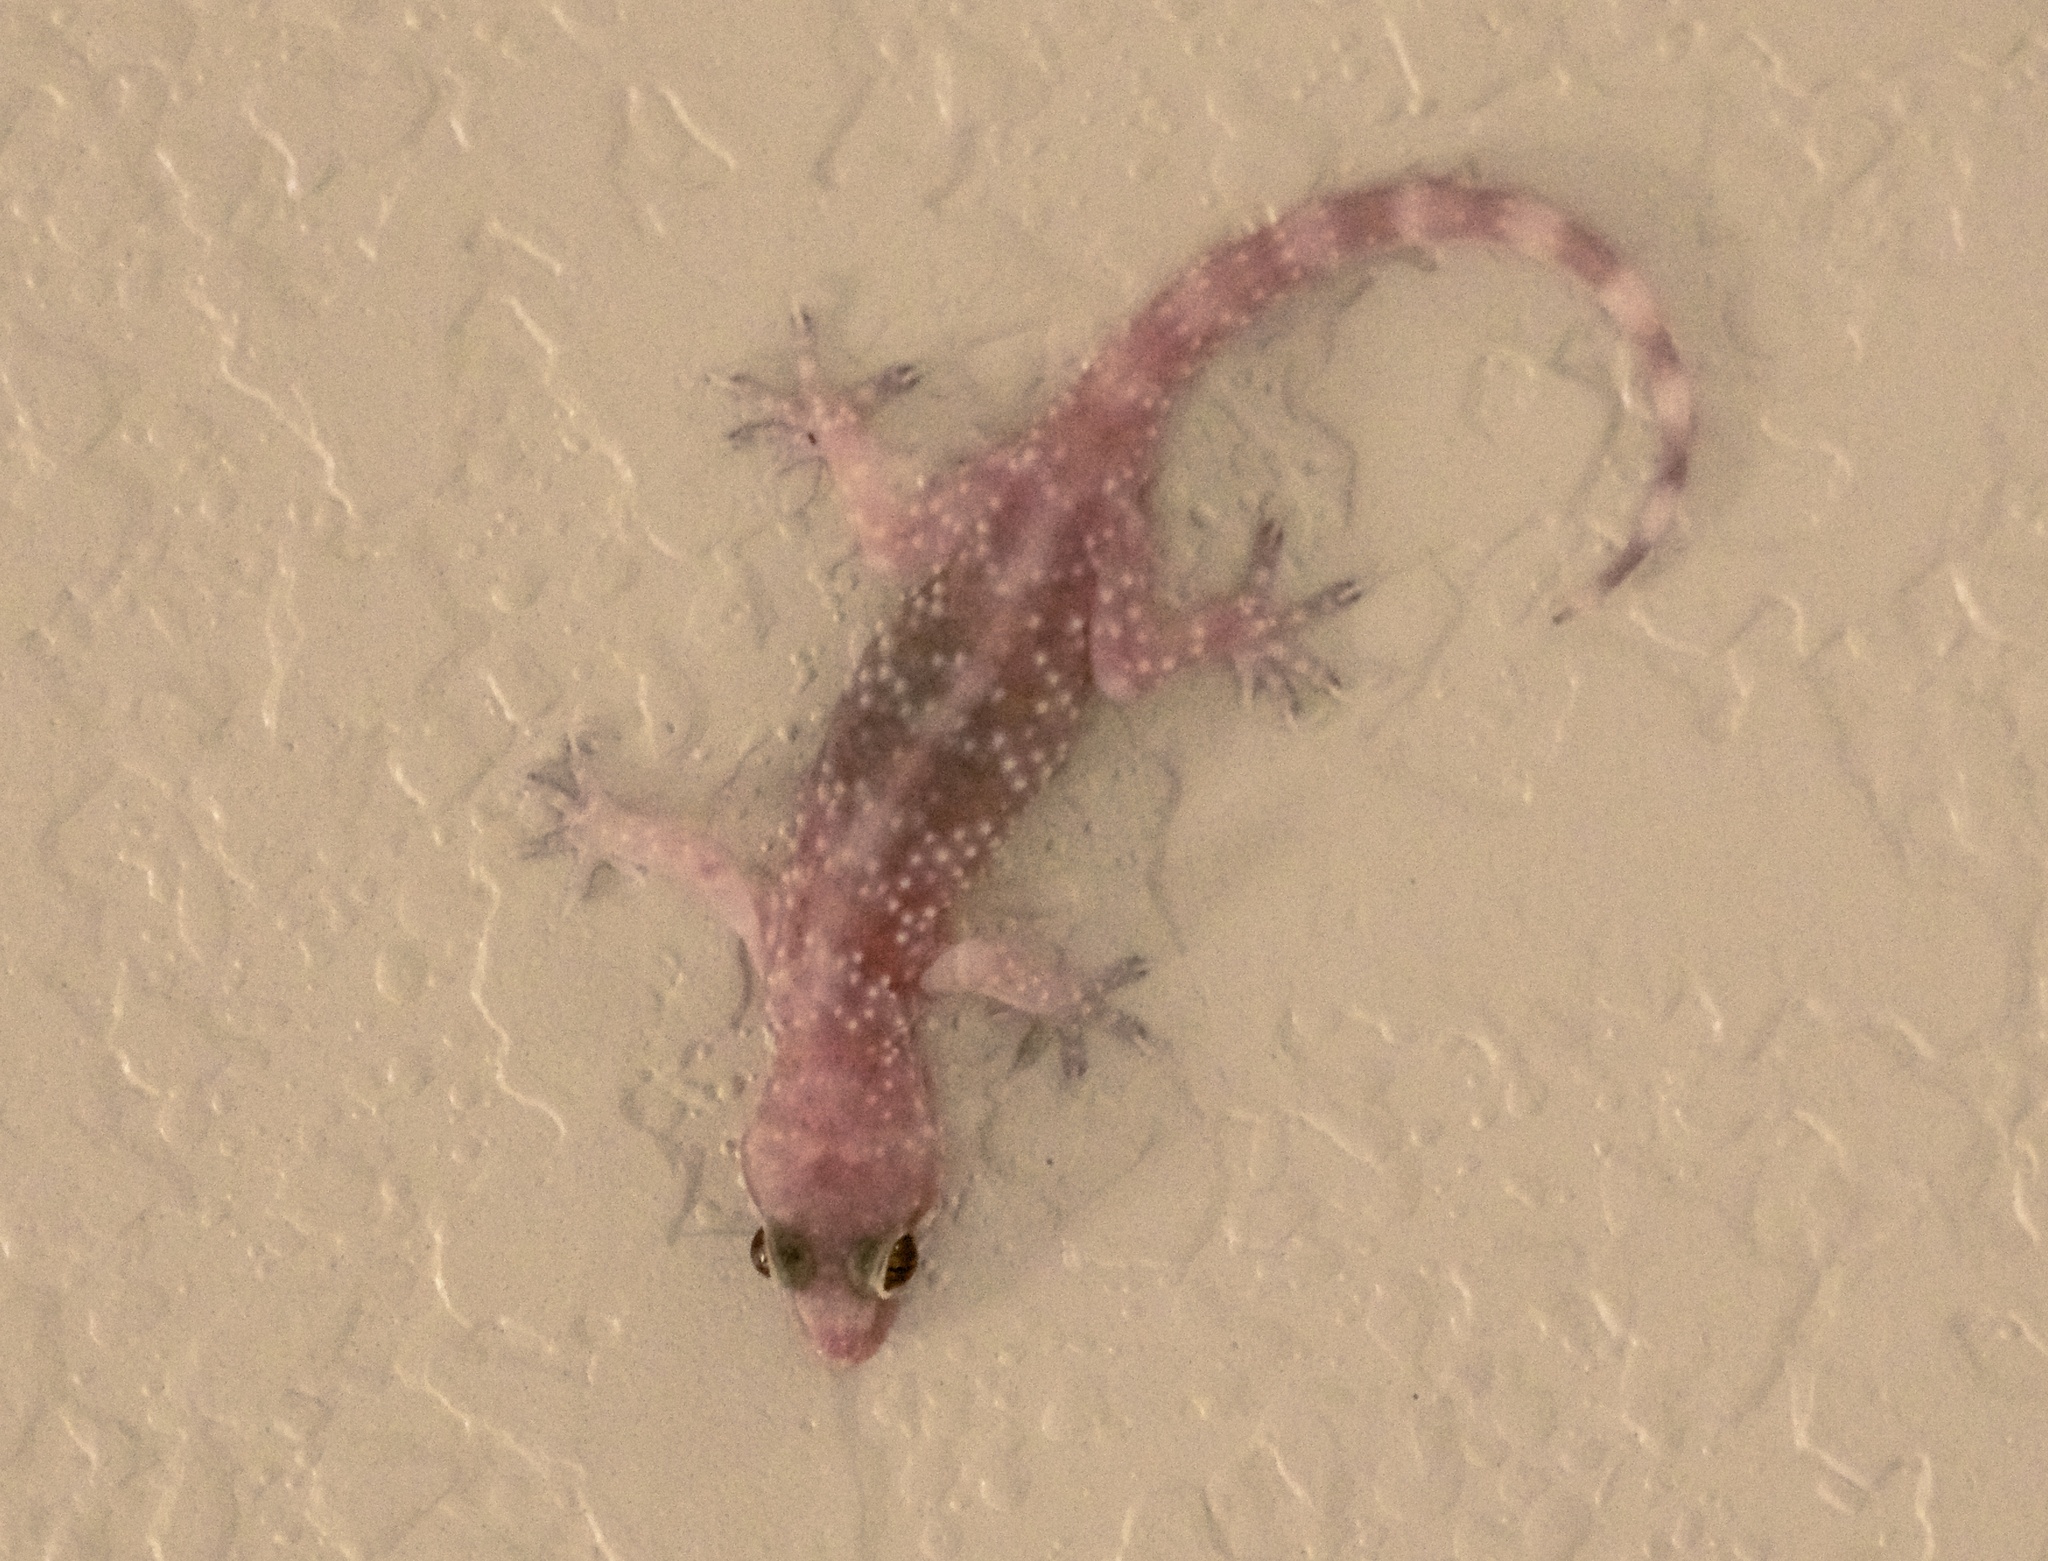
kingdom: Animalia
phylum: Chordata
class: Squamata
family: Gekkonidae
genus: Hemidactylus
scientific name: Hemidactylus turcicus
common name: Turkish gecko
